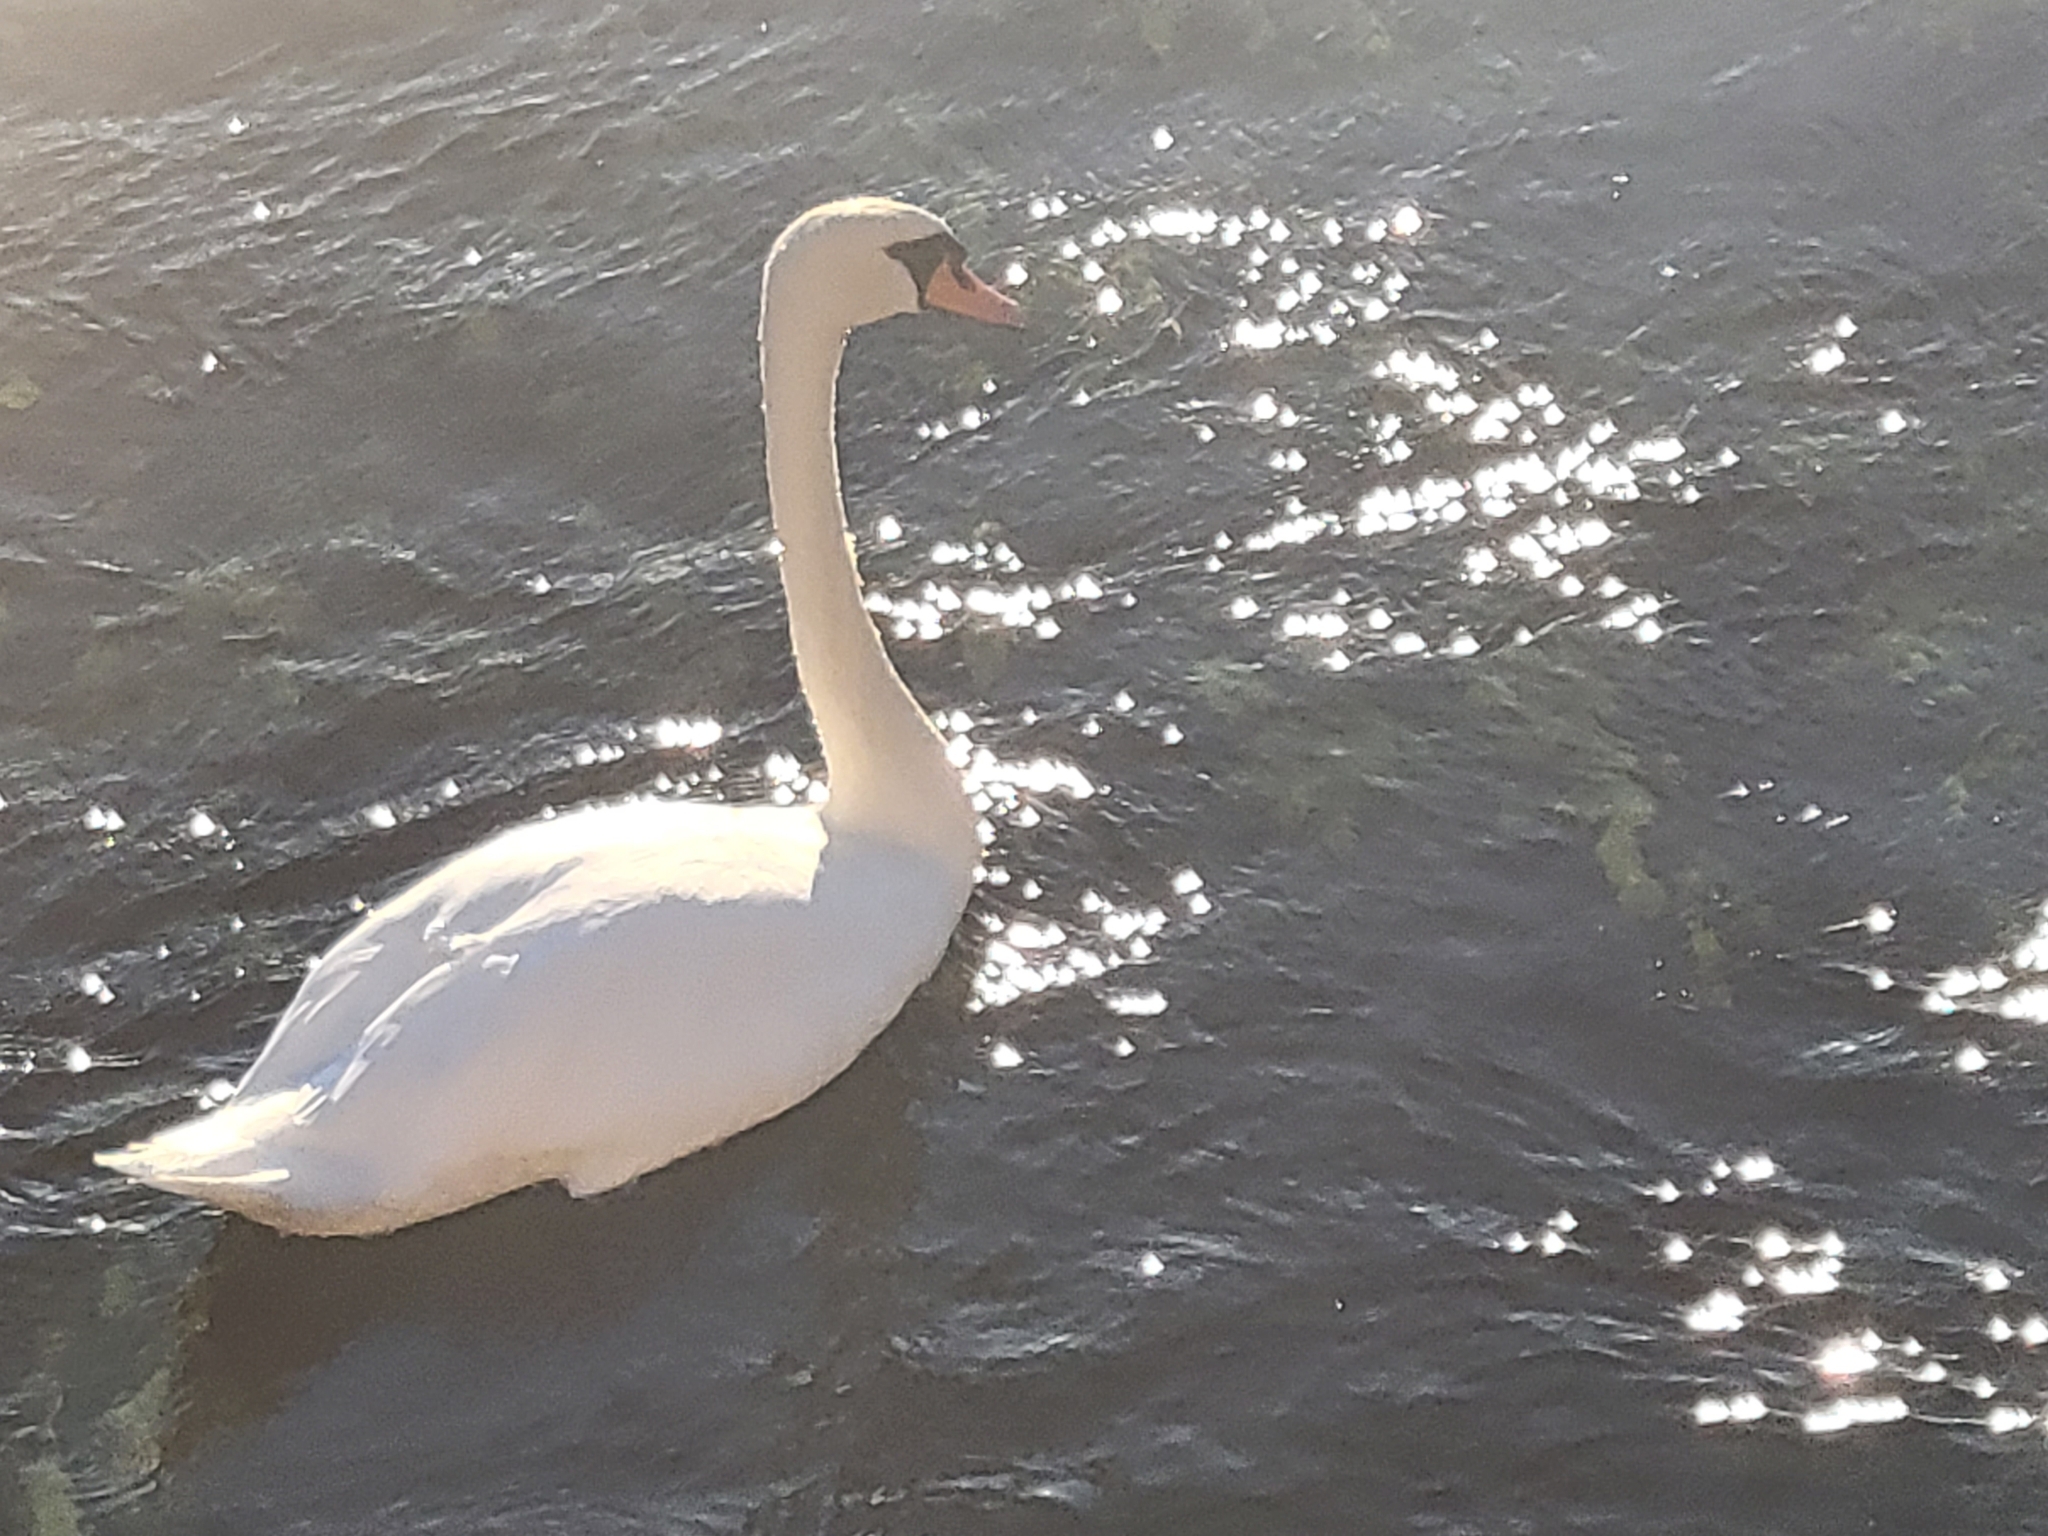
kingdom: Animalia
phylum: Chordata
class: Aves
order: Anseriformes
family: Anatidae
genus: Cygnus
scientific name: Cygnus olor
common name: Mute swan
